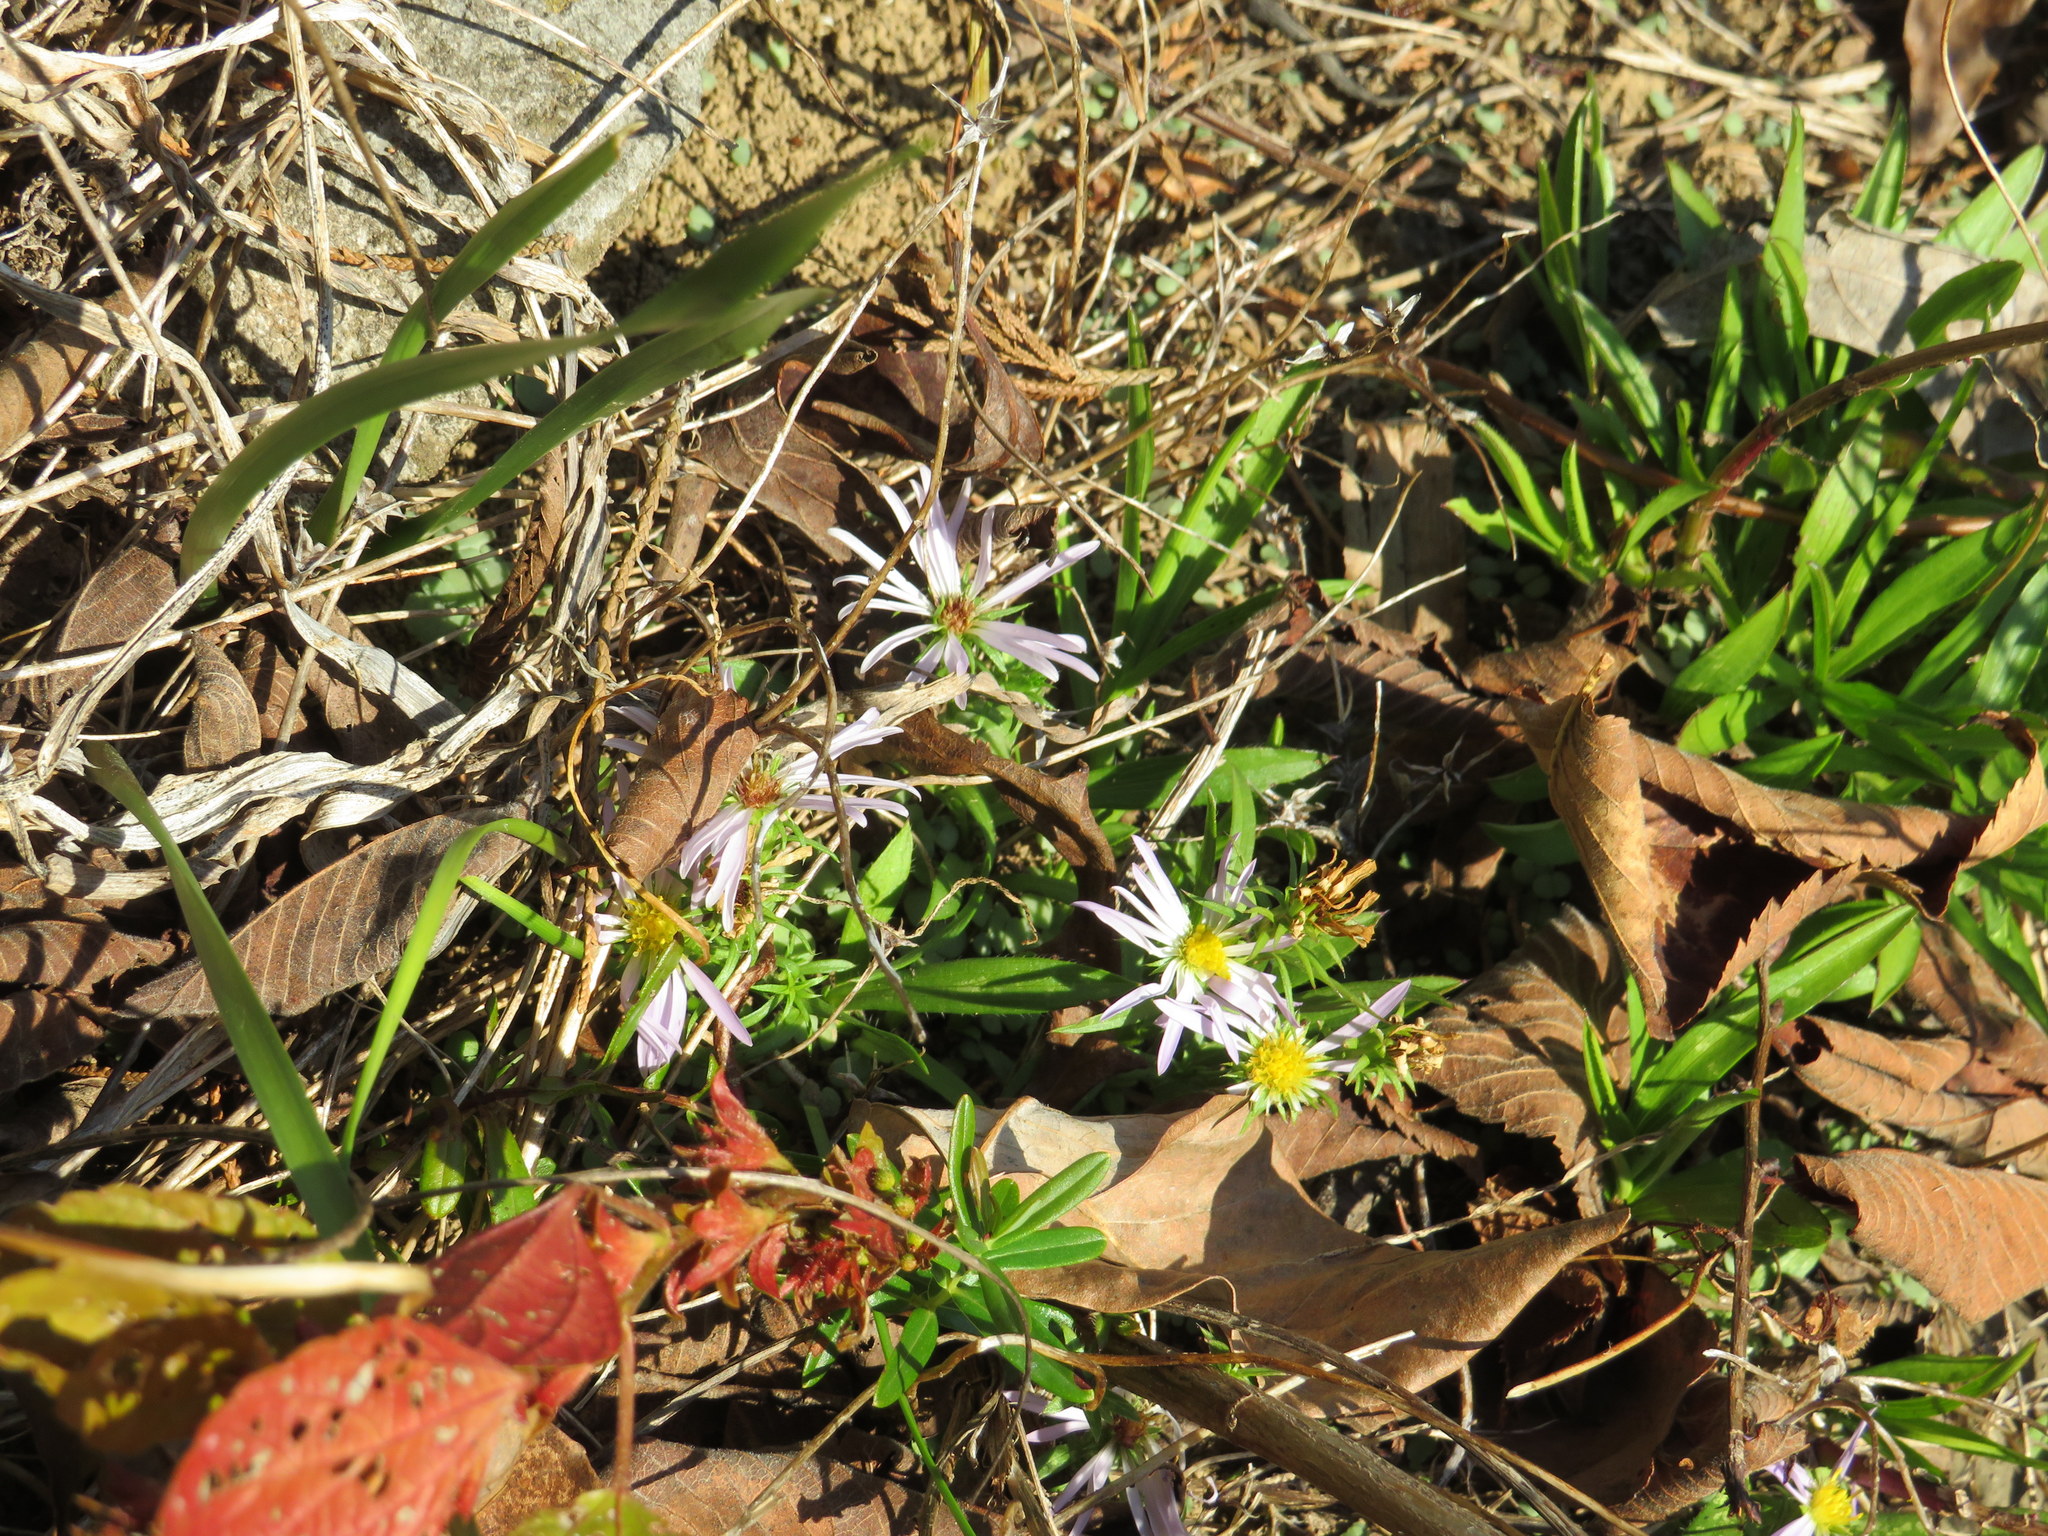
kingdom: Plantae
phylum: Tracheophyta
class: Magnoliopsida
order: Asterales
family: Asteraceae
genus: Symphyotrichum
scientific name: Symphyotrichum kentuckiense
